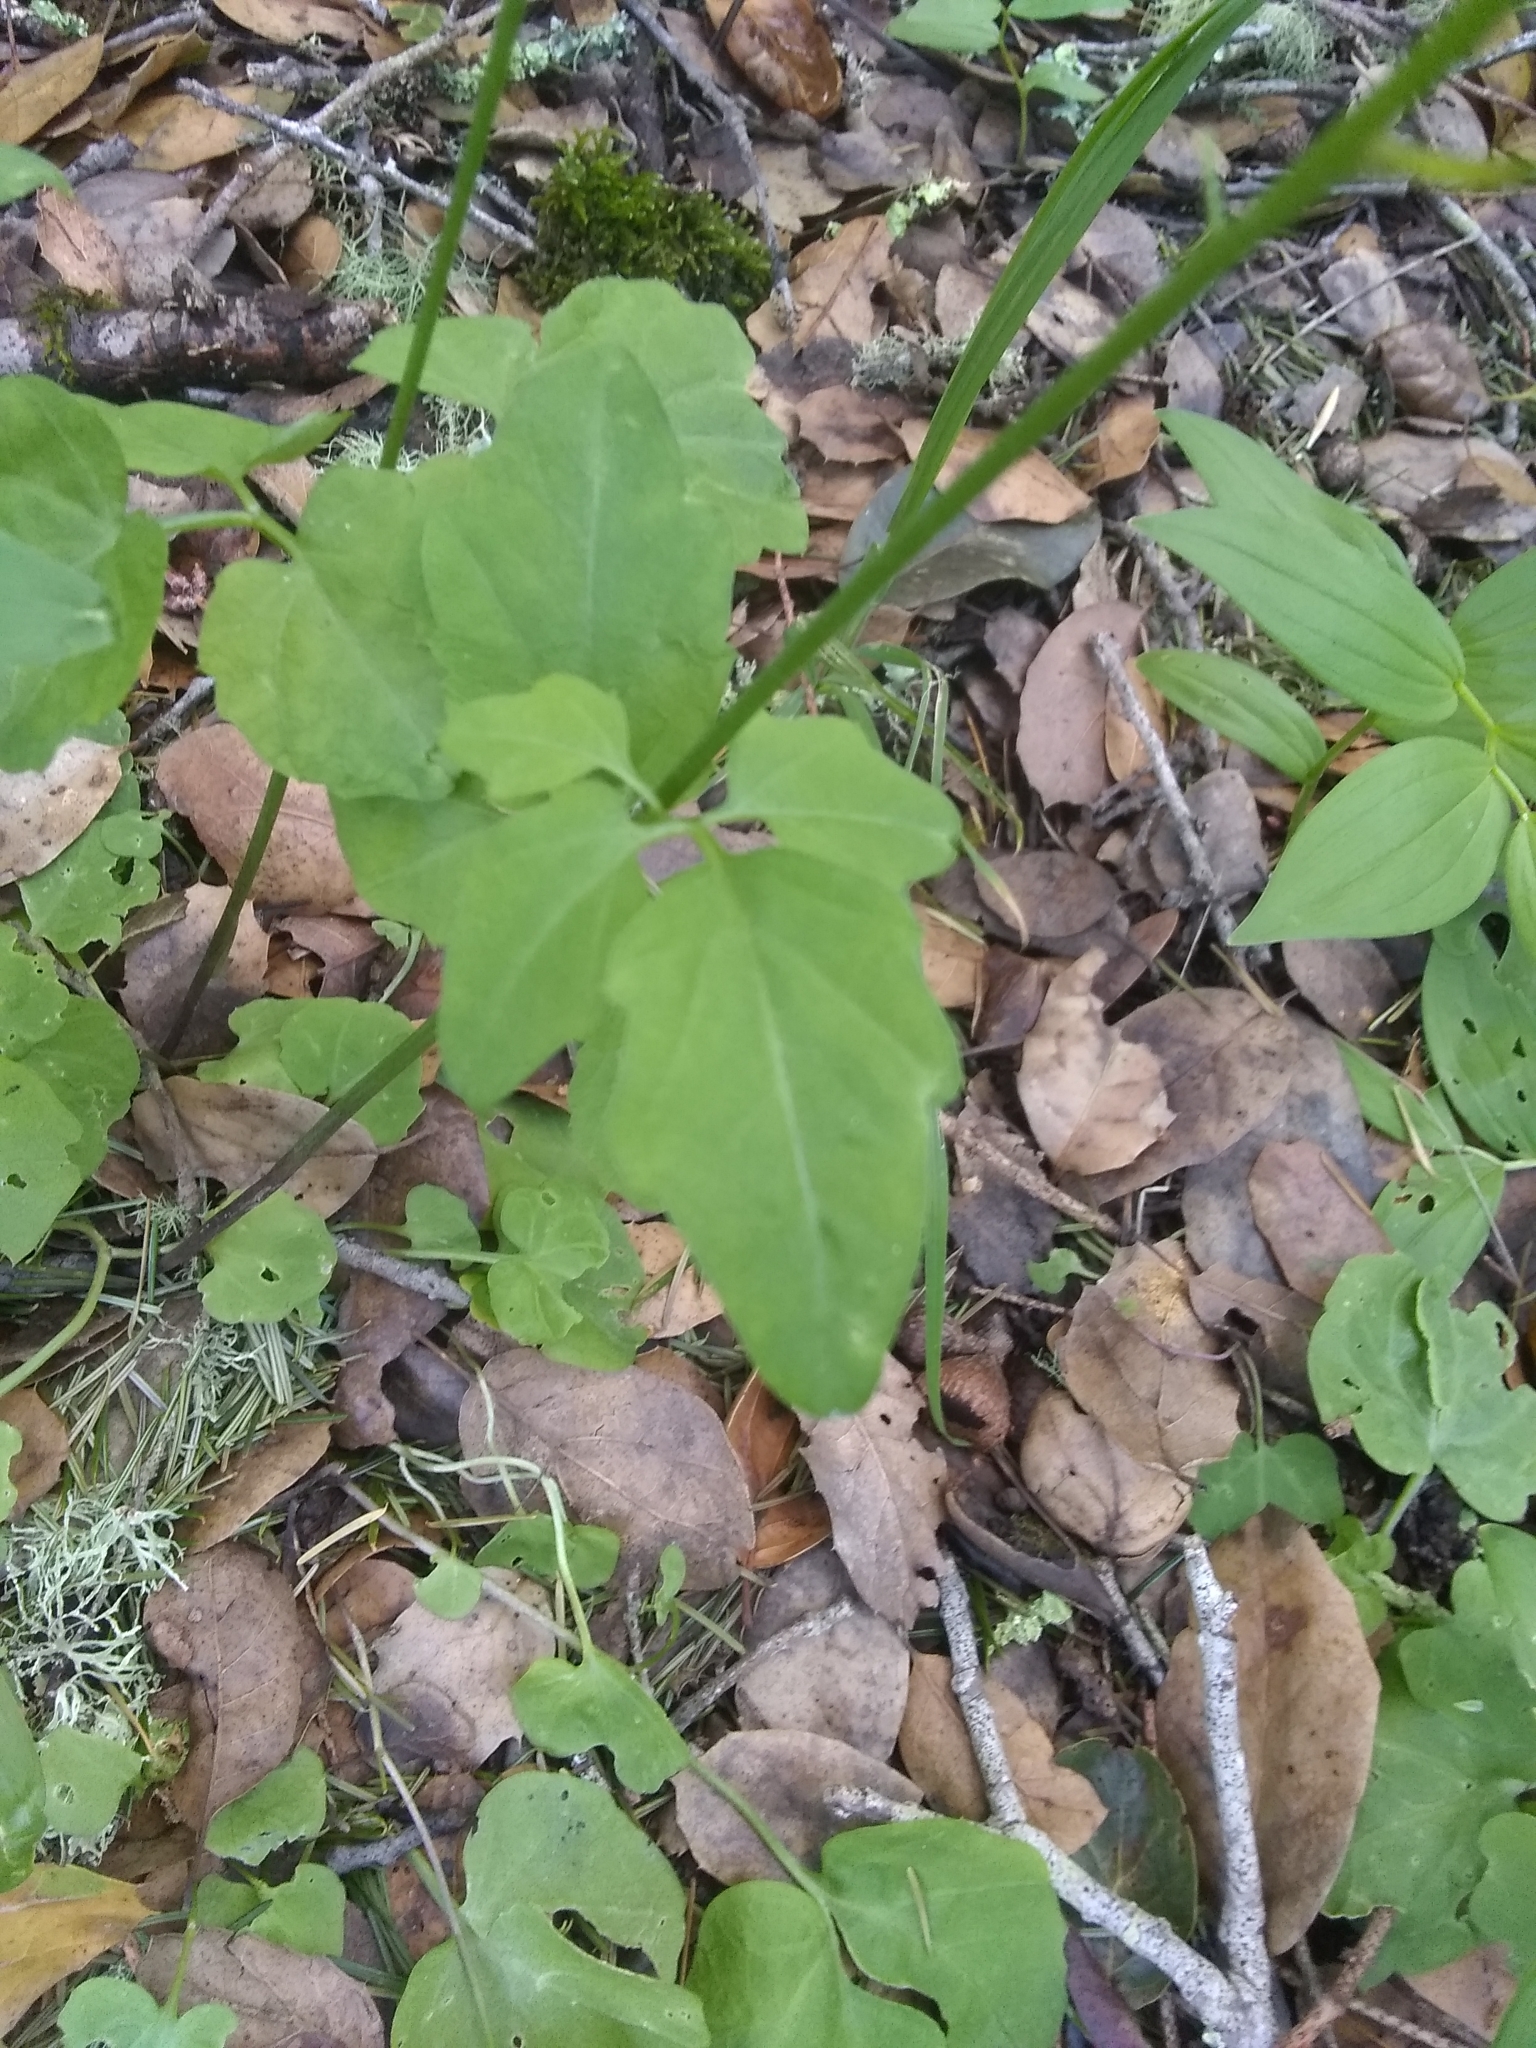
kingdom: Plantae
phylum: Tracheophyta
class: Magnoliopsida
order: Brassicales
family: Brassicaceae
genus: Cardamine
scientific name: Cardamine californica
